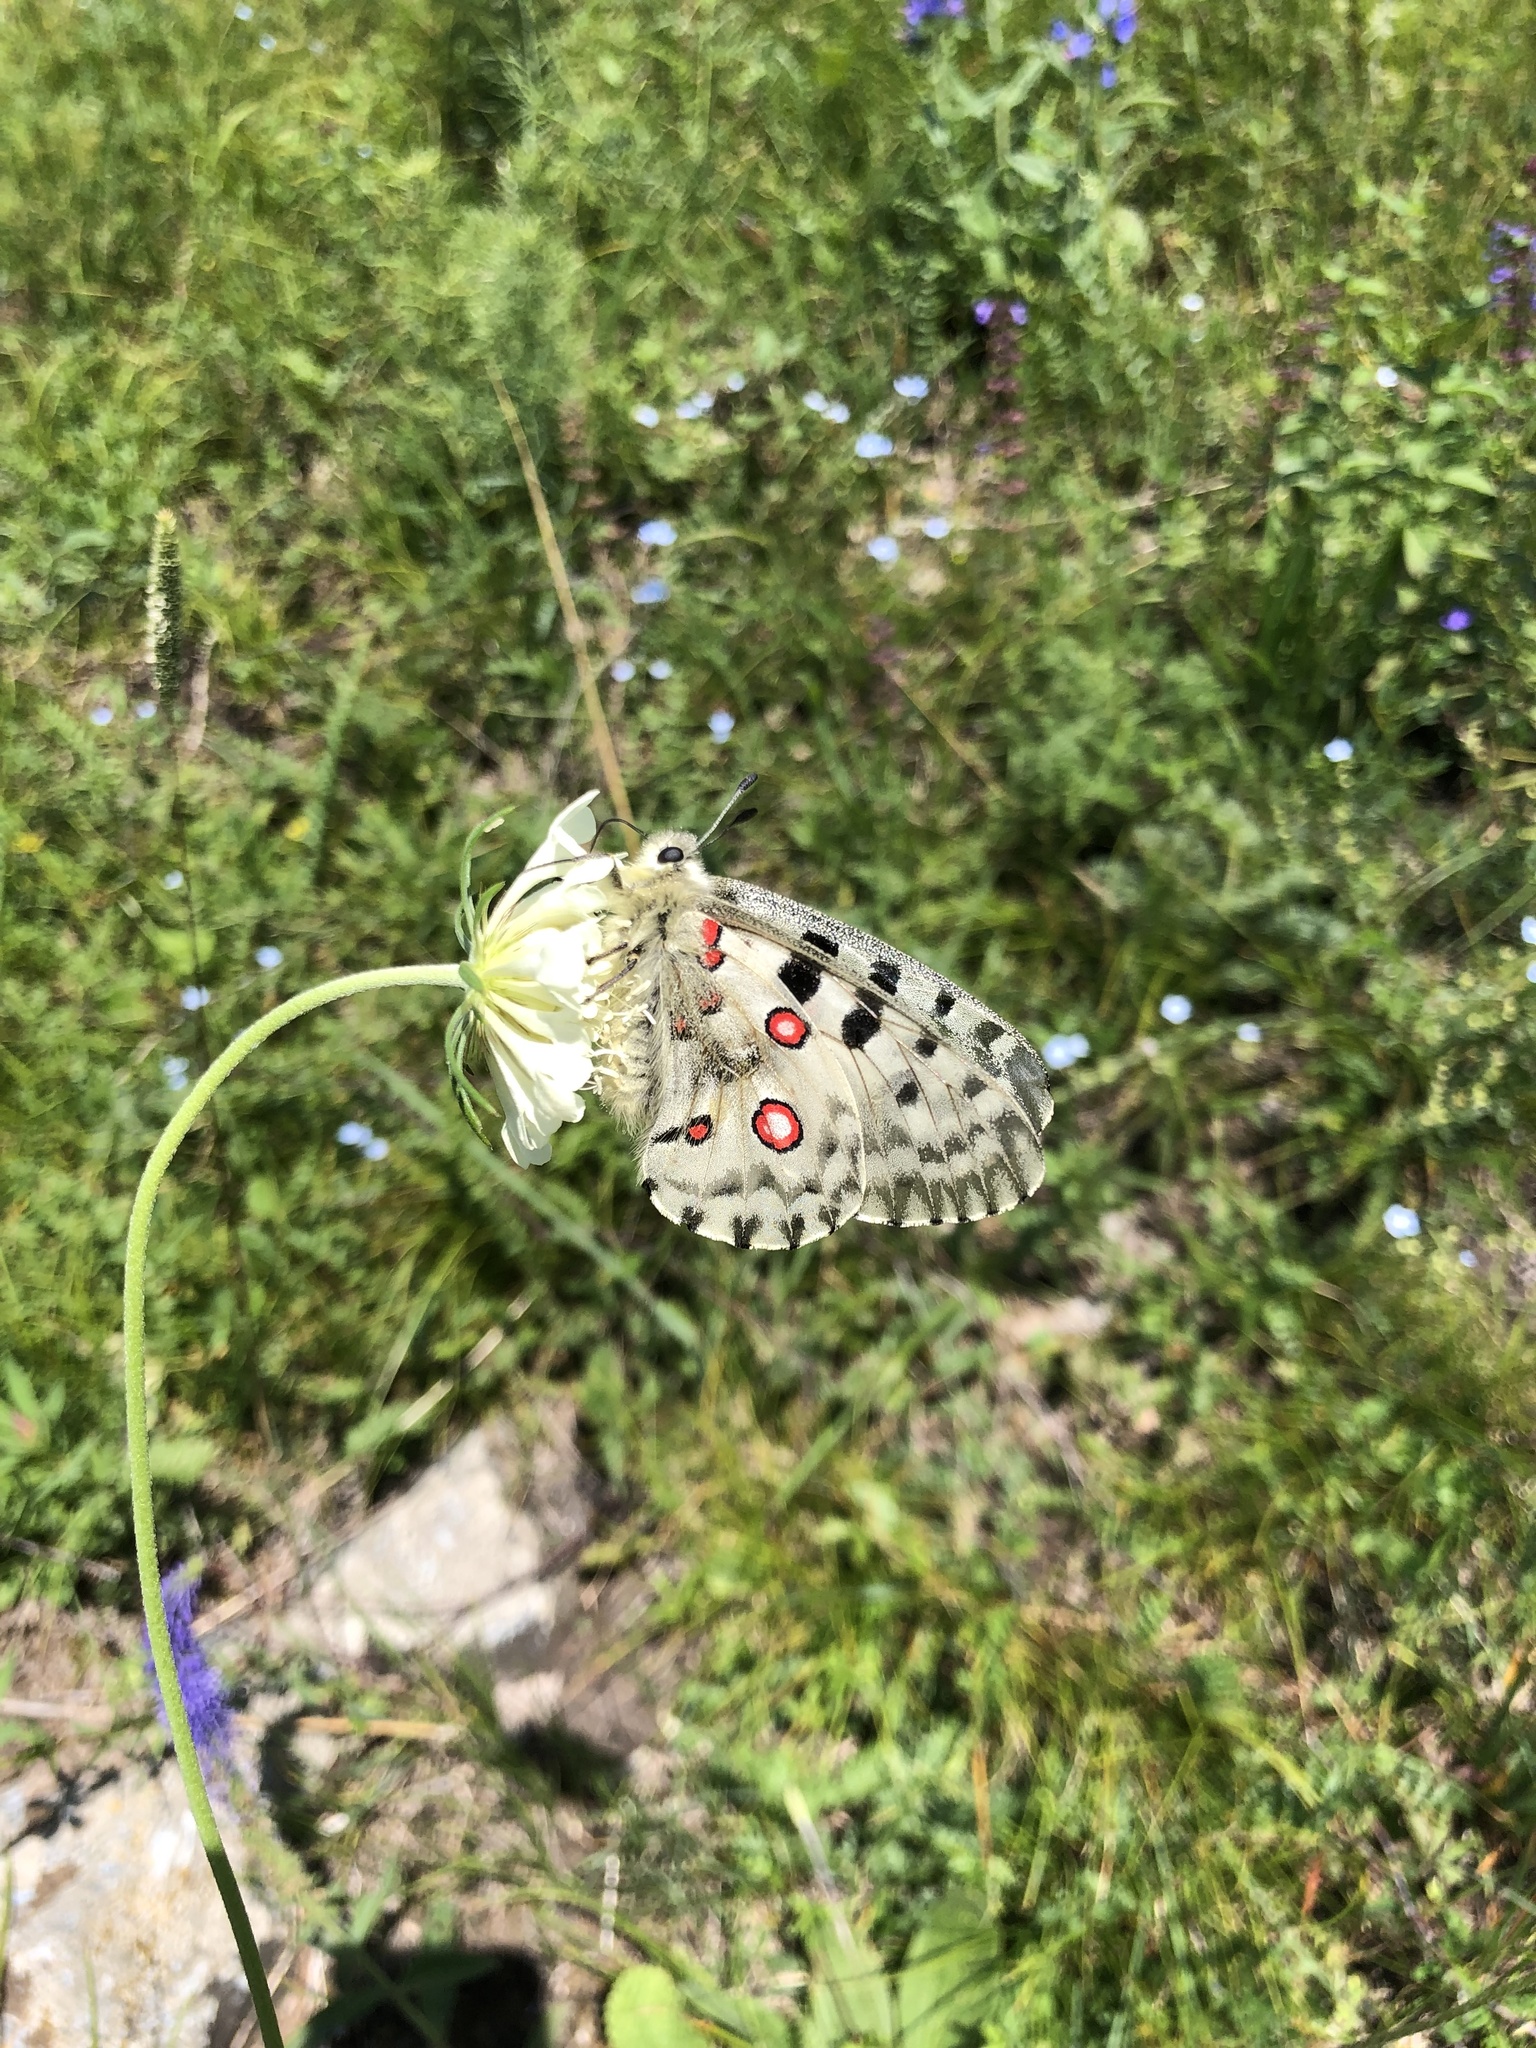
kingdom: Animalia
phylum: Arthropoda
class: Insecta
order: Lepidoptera
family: Papilionidae
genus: Parnassius
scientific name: Parnassius nomion
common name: Nomion apollo
